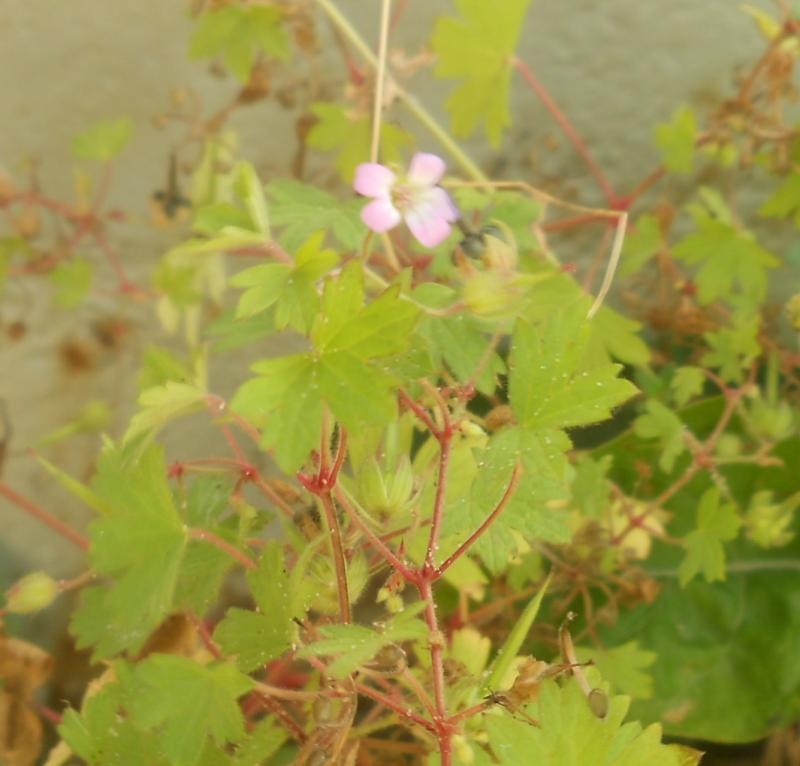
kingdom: Plantae
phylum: Tracheophyta
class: Magnoliopsida
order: Geraniales
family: Geraniaceae
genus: Geranium
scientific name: Geranium rotundifolium
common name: Round-leaved crane's-bill
